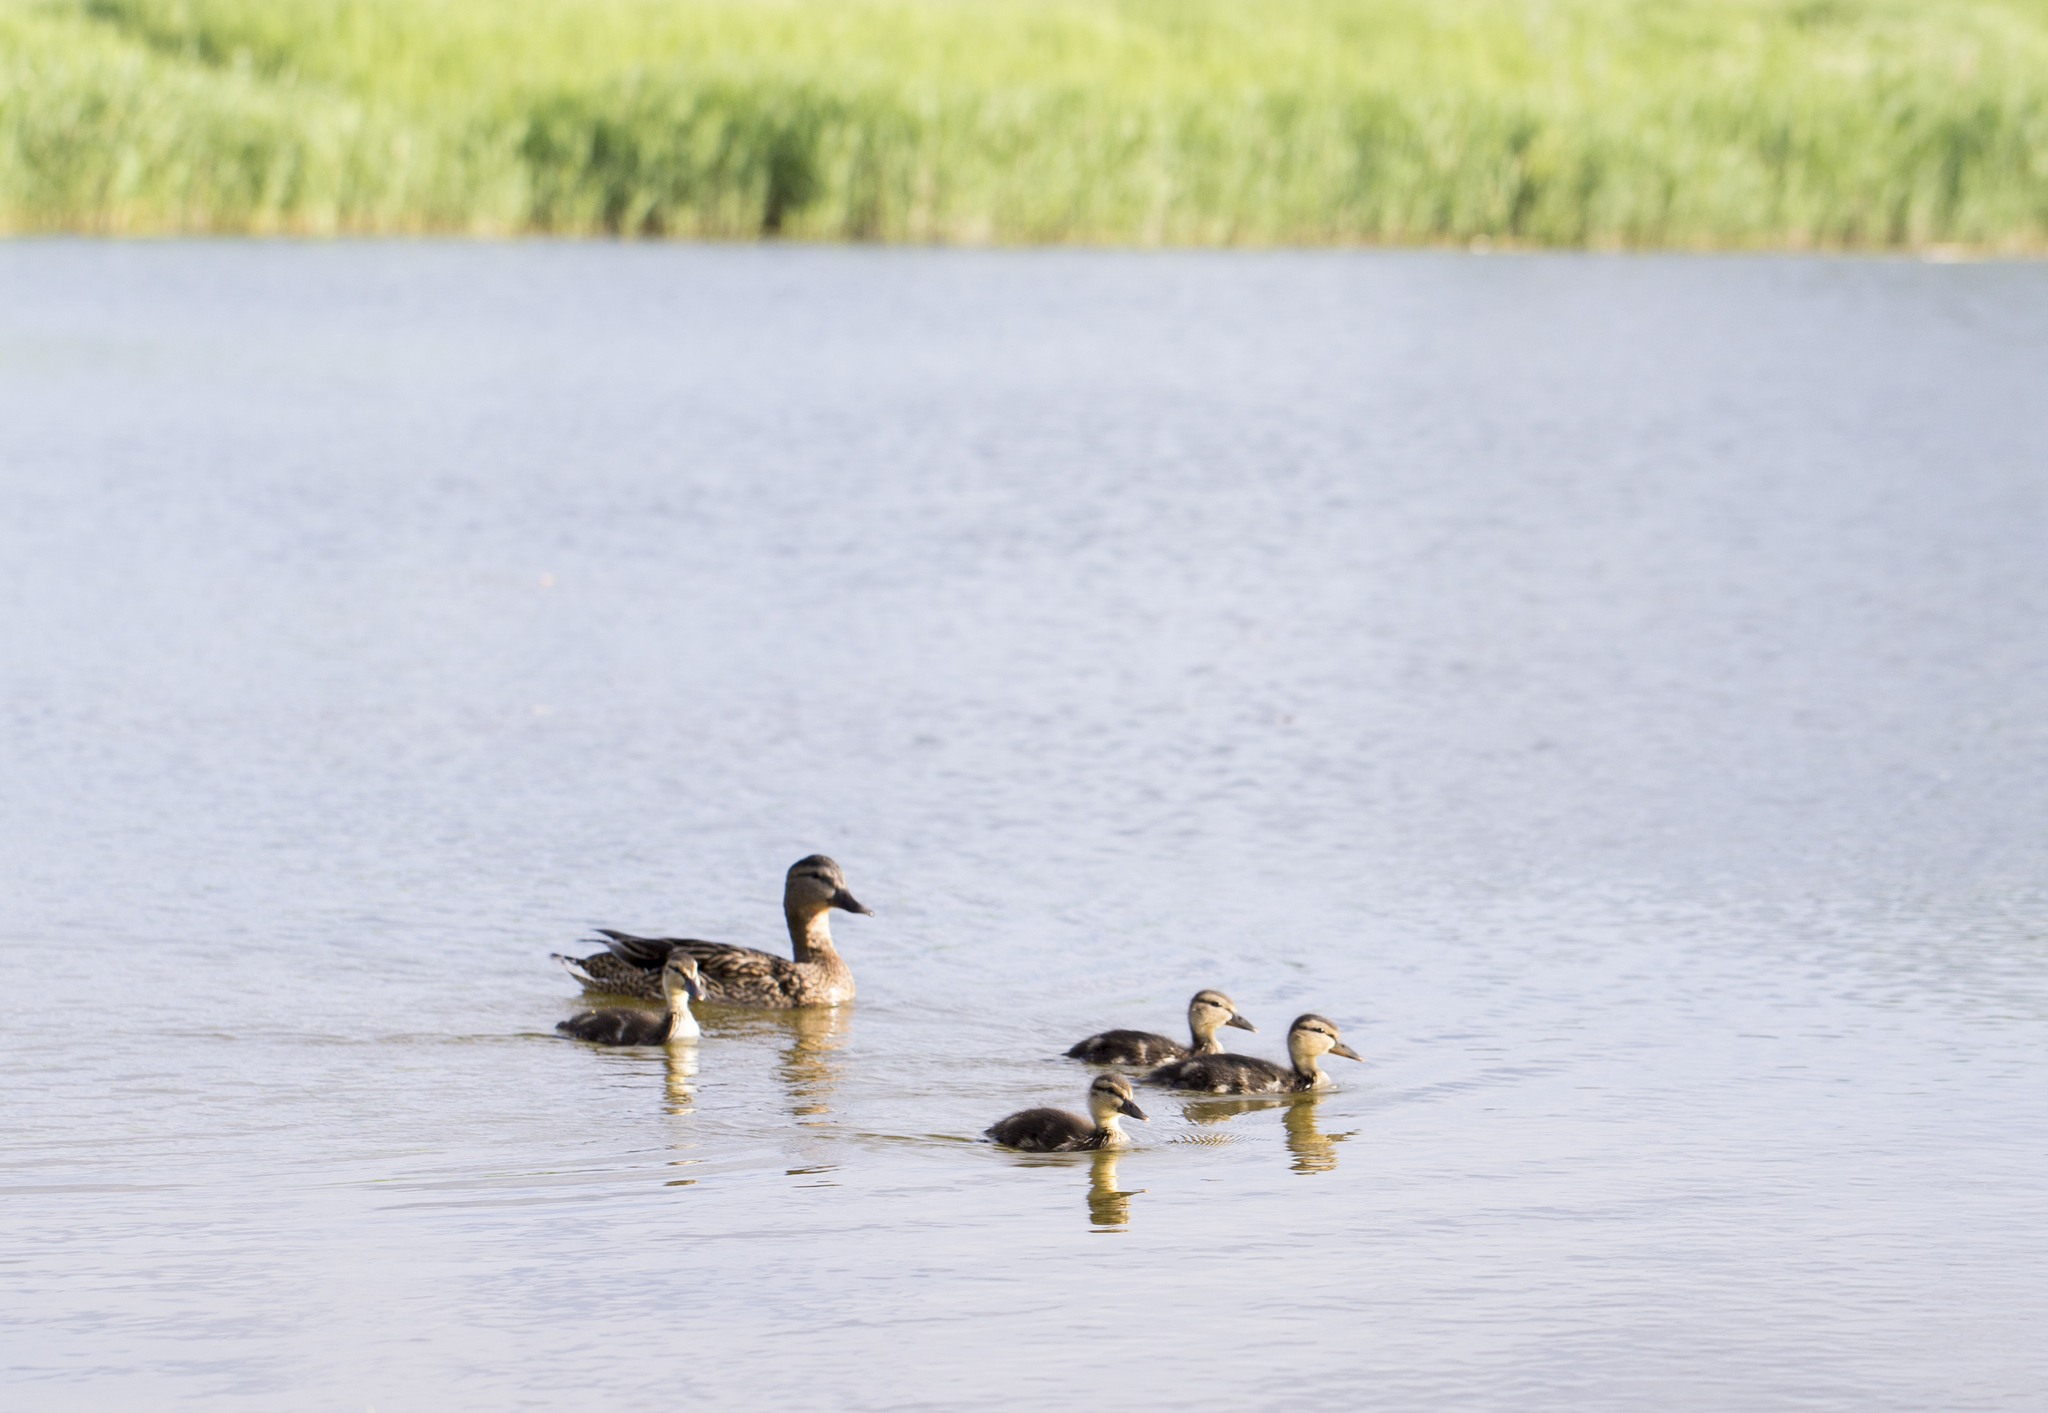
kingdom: Animalia
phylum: Chordata
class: Aves
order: Anseriformes
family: Anatidae
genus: Anas
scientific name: Anas platyrhynchos
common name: Mallard
